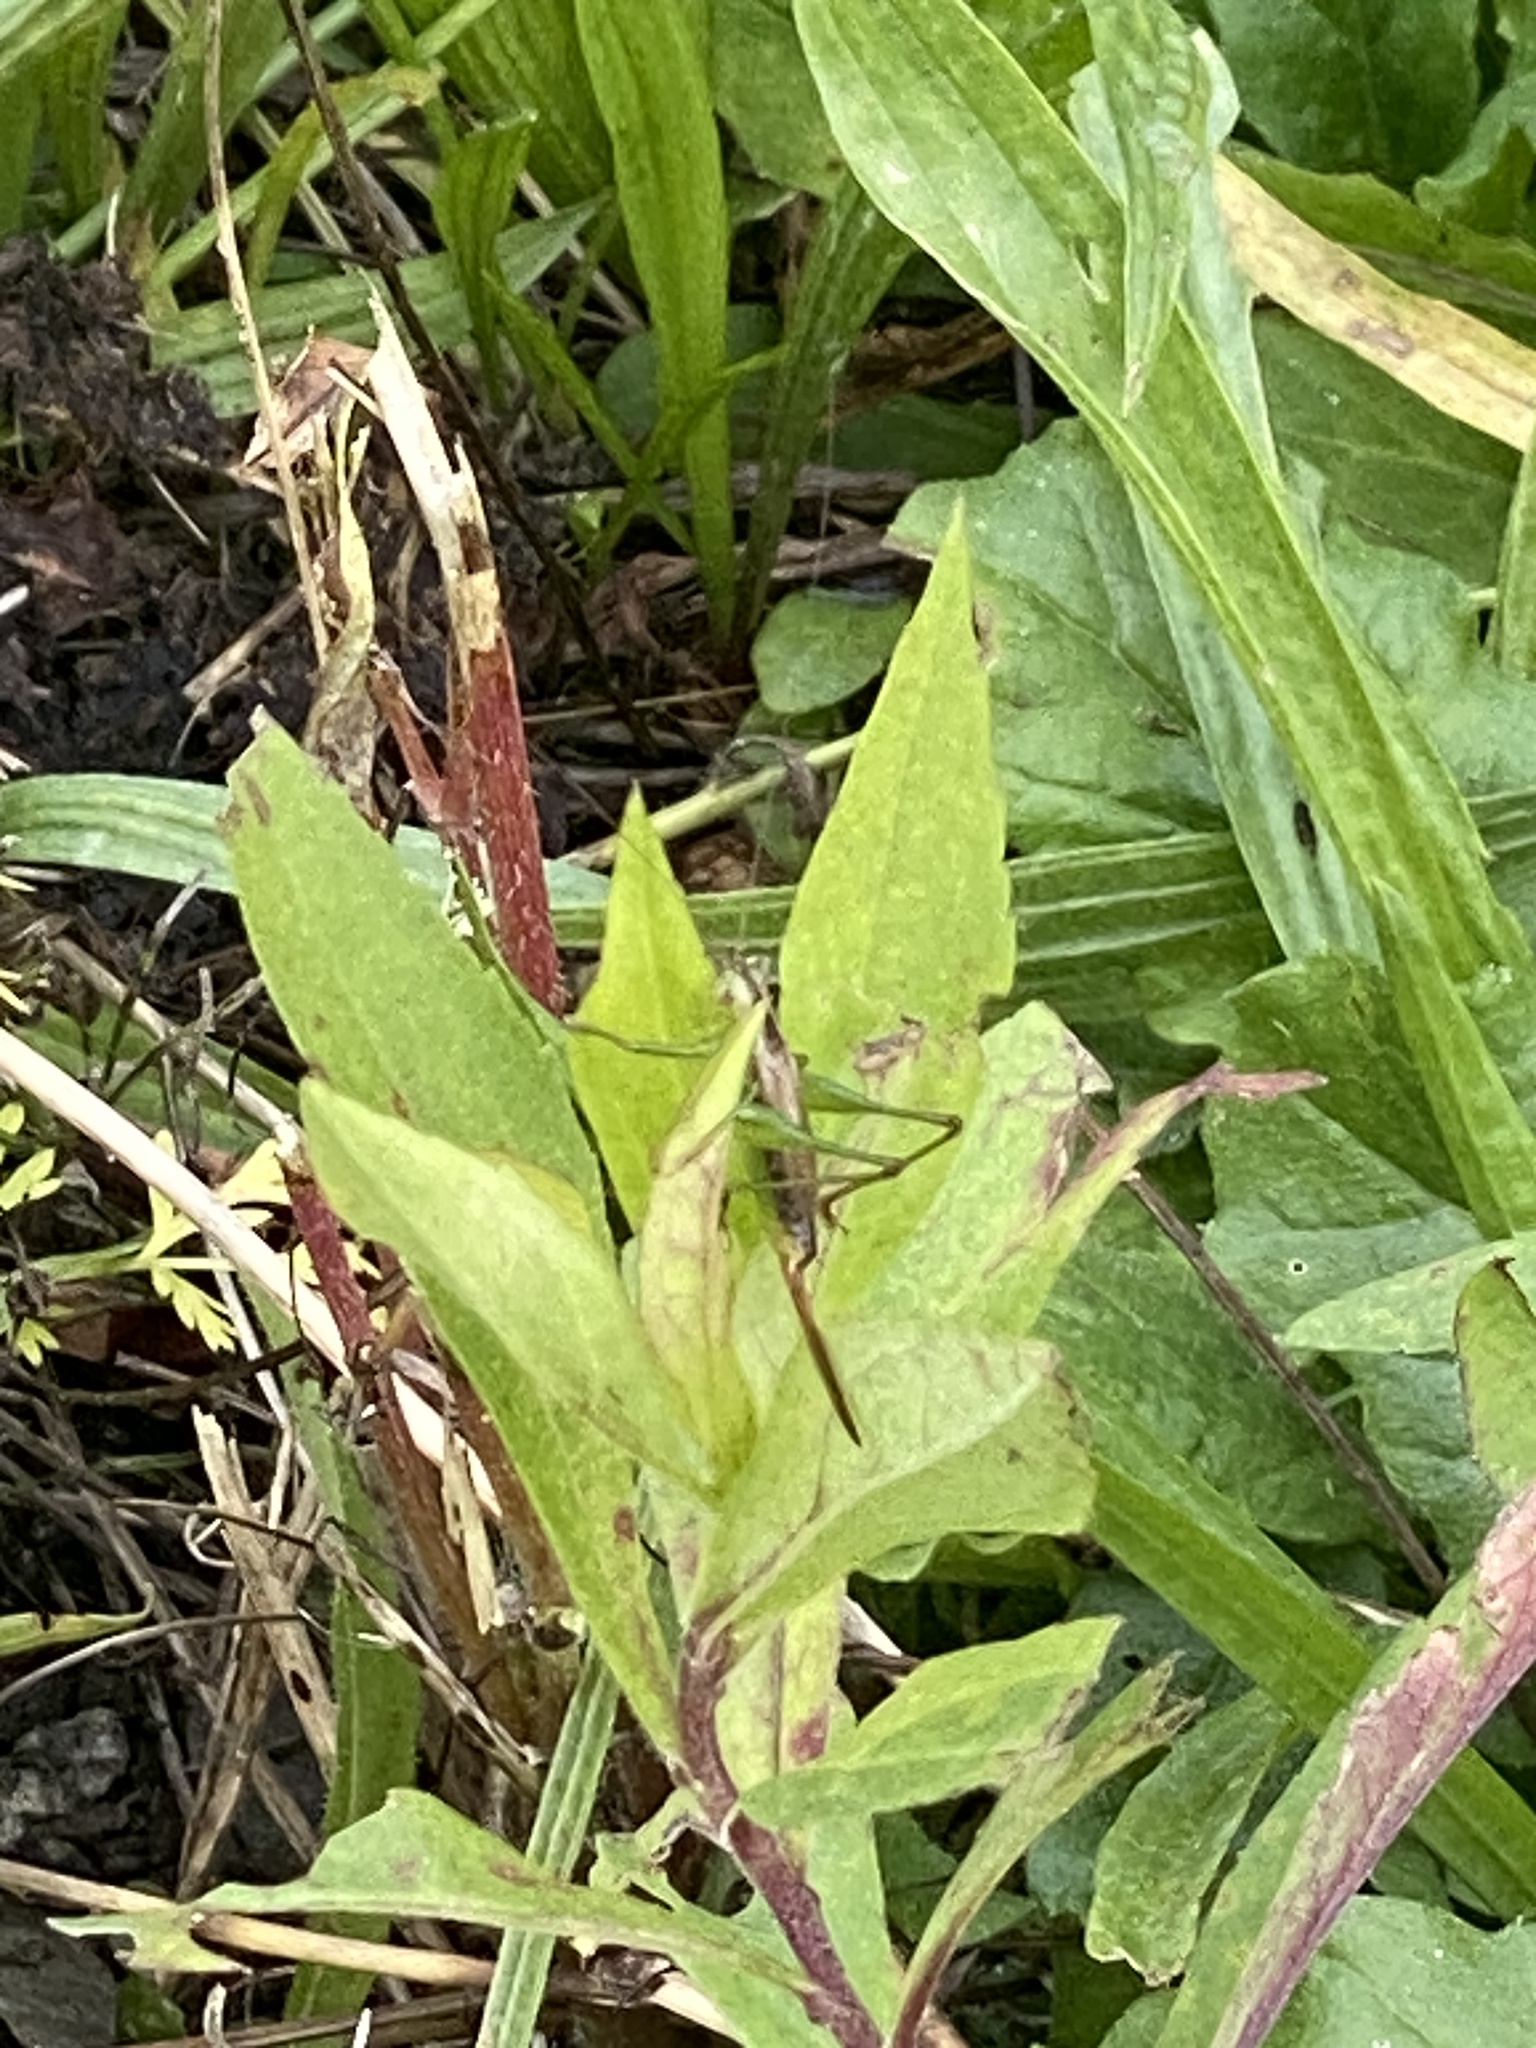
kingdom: Animalia
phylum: Arthropoda
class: Insecta
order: Orthoptera
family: Tettigoniidae
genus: Conocephalus
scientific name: Conocephalus brevipennis
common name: Short-winged meadow katydid
